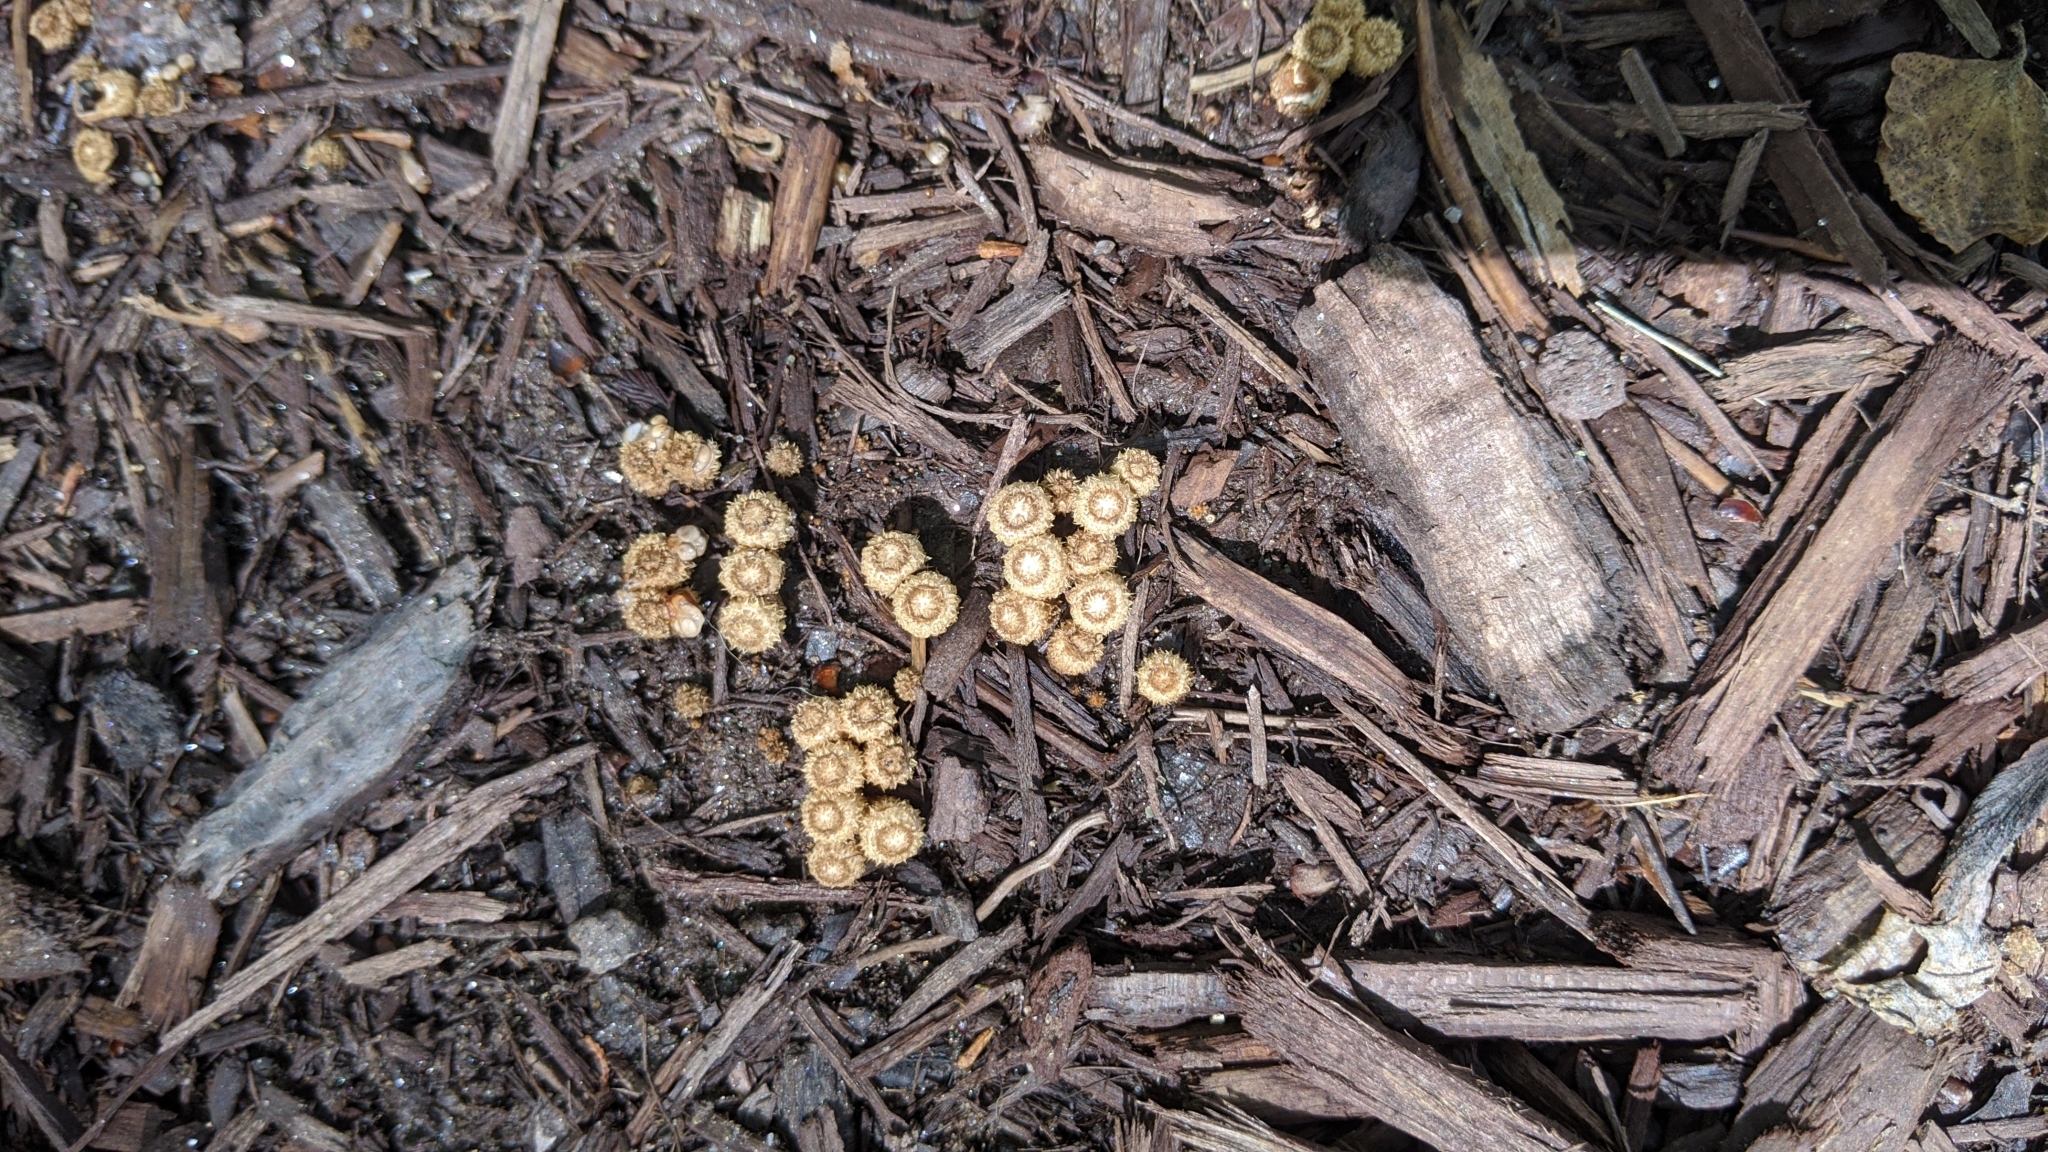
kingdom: Fungi
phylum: Basidiomycota
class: Agaricomycetes
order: Agaricales
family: Agaricaceae
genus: Cyathus
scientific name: Cyathus striatus
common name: Fluted bird's nest
